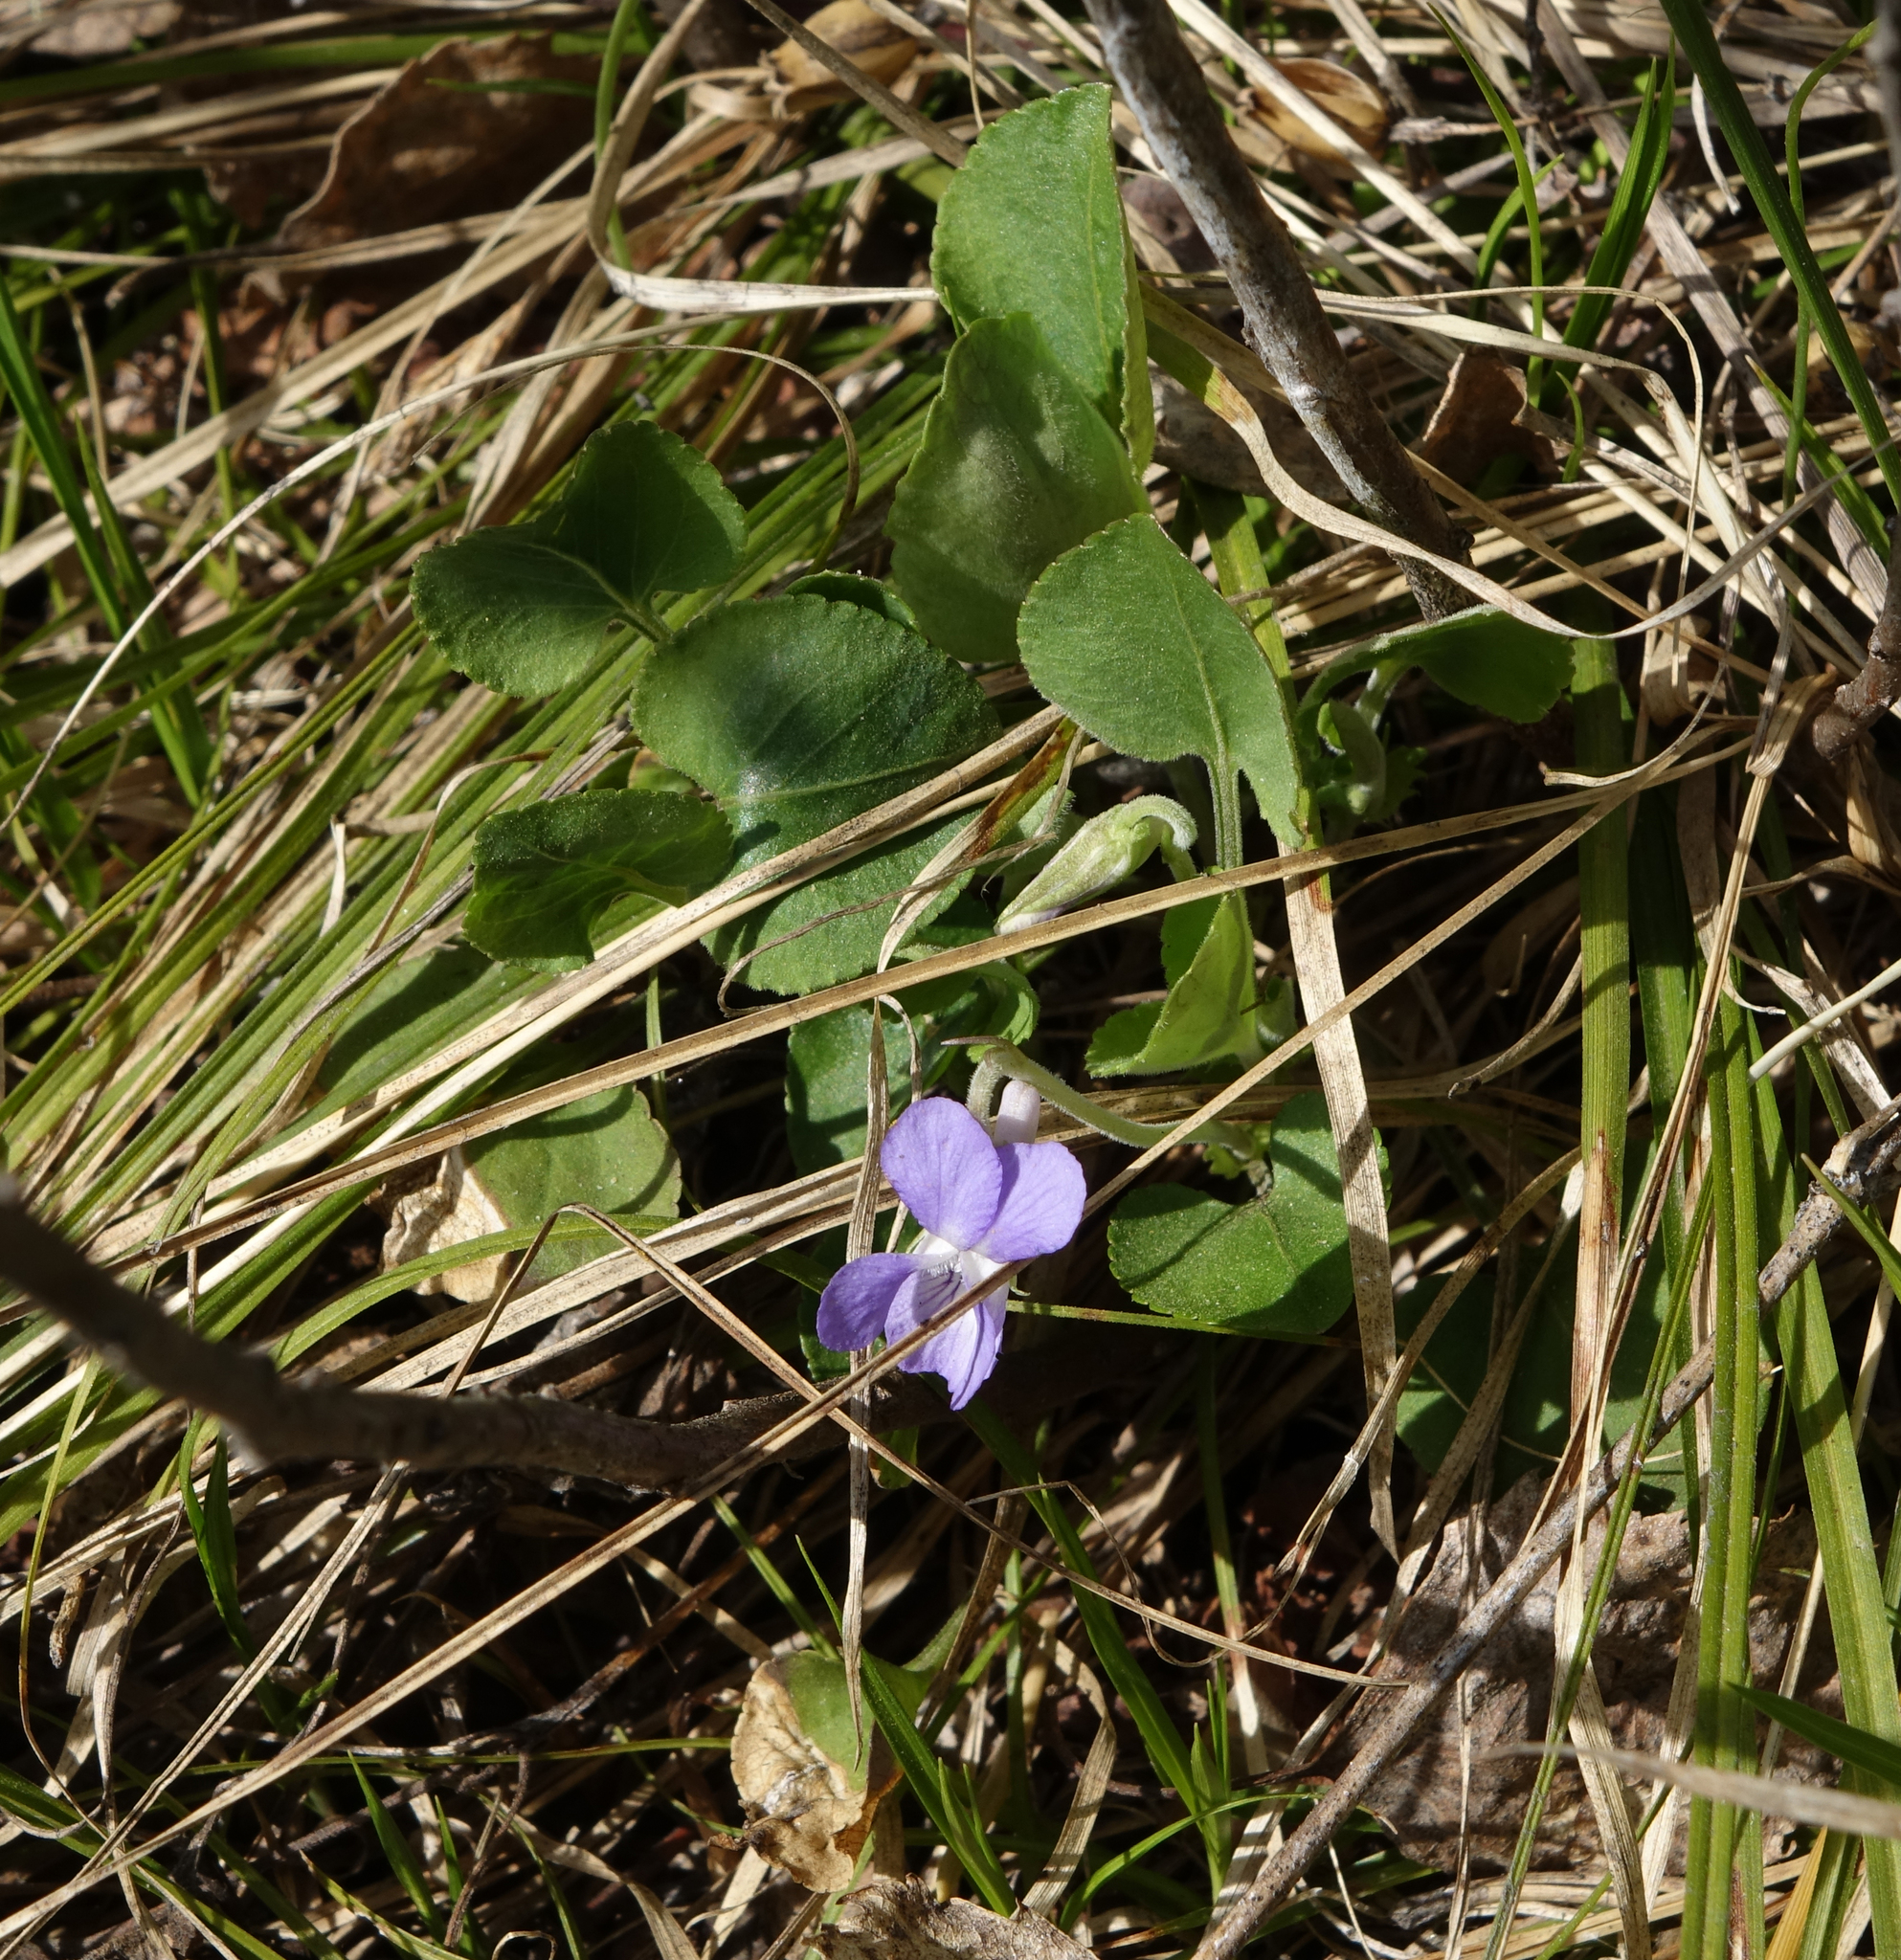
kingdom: Plantae
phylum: Tracheophyta
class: Magnoliopsida
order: Malpighiales
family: Violaceae
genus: Viola
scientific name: Viola rupestris
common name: Teesdale violet
